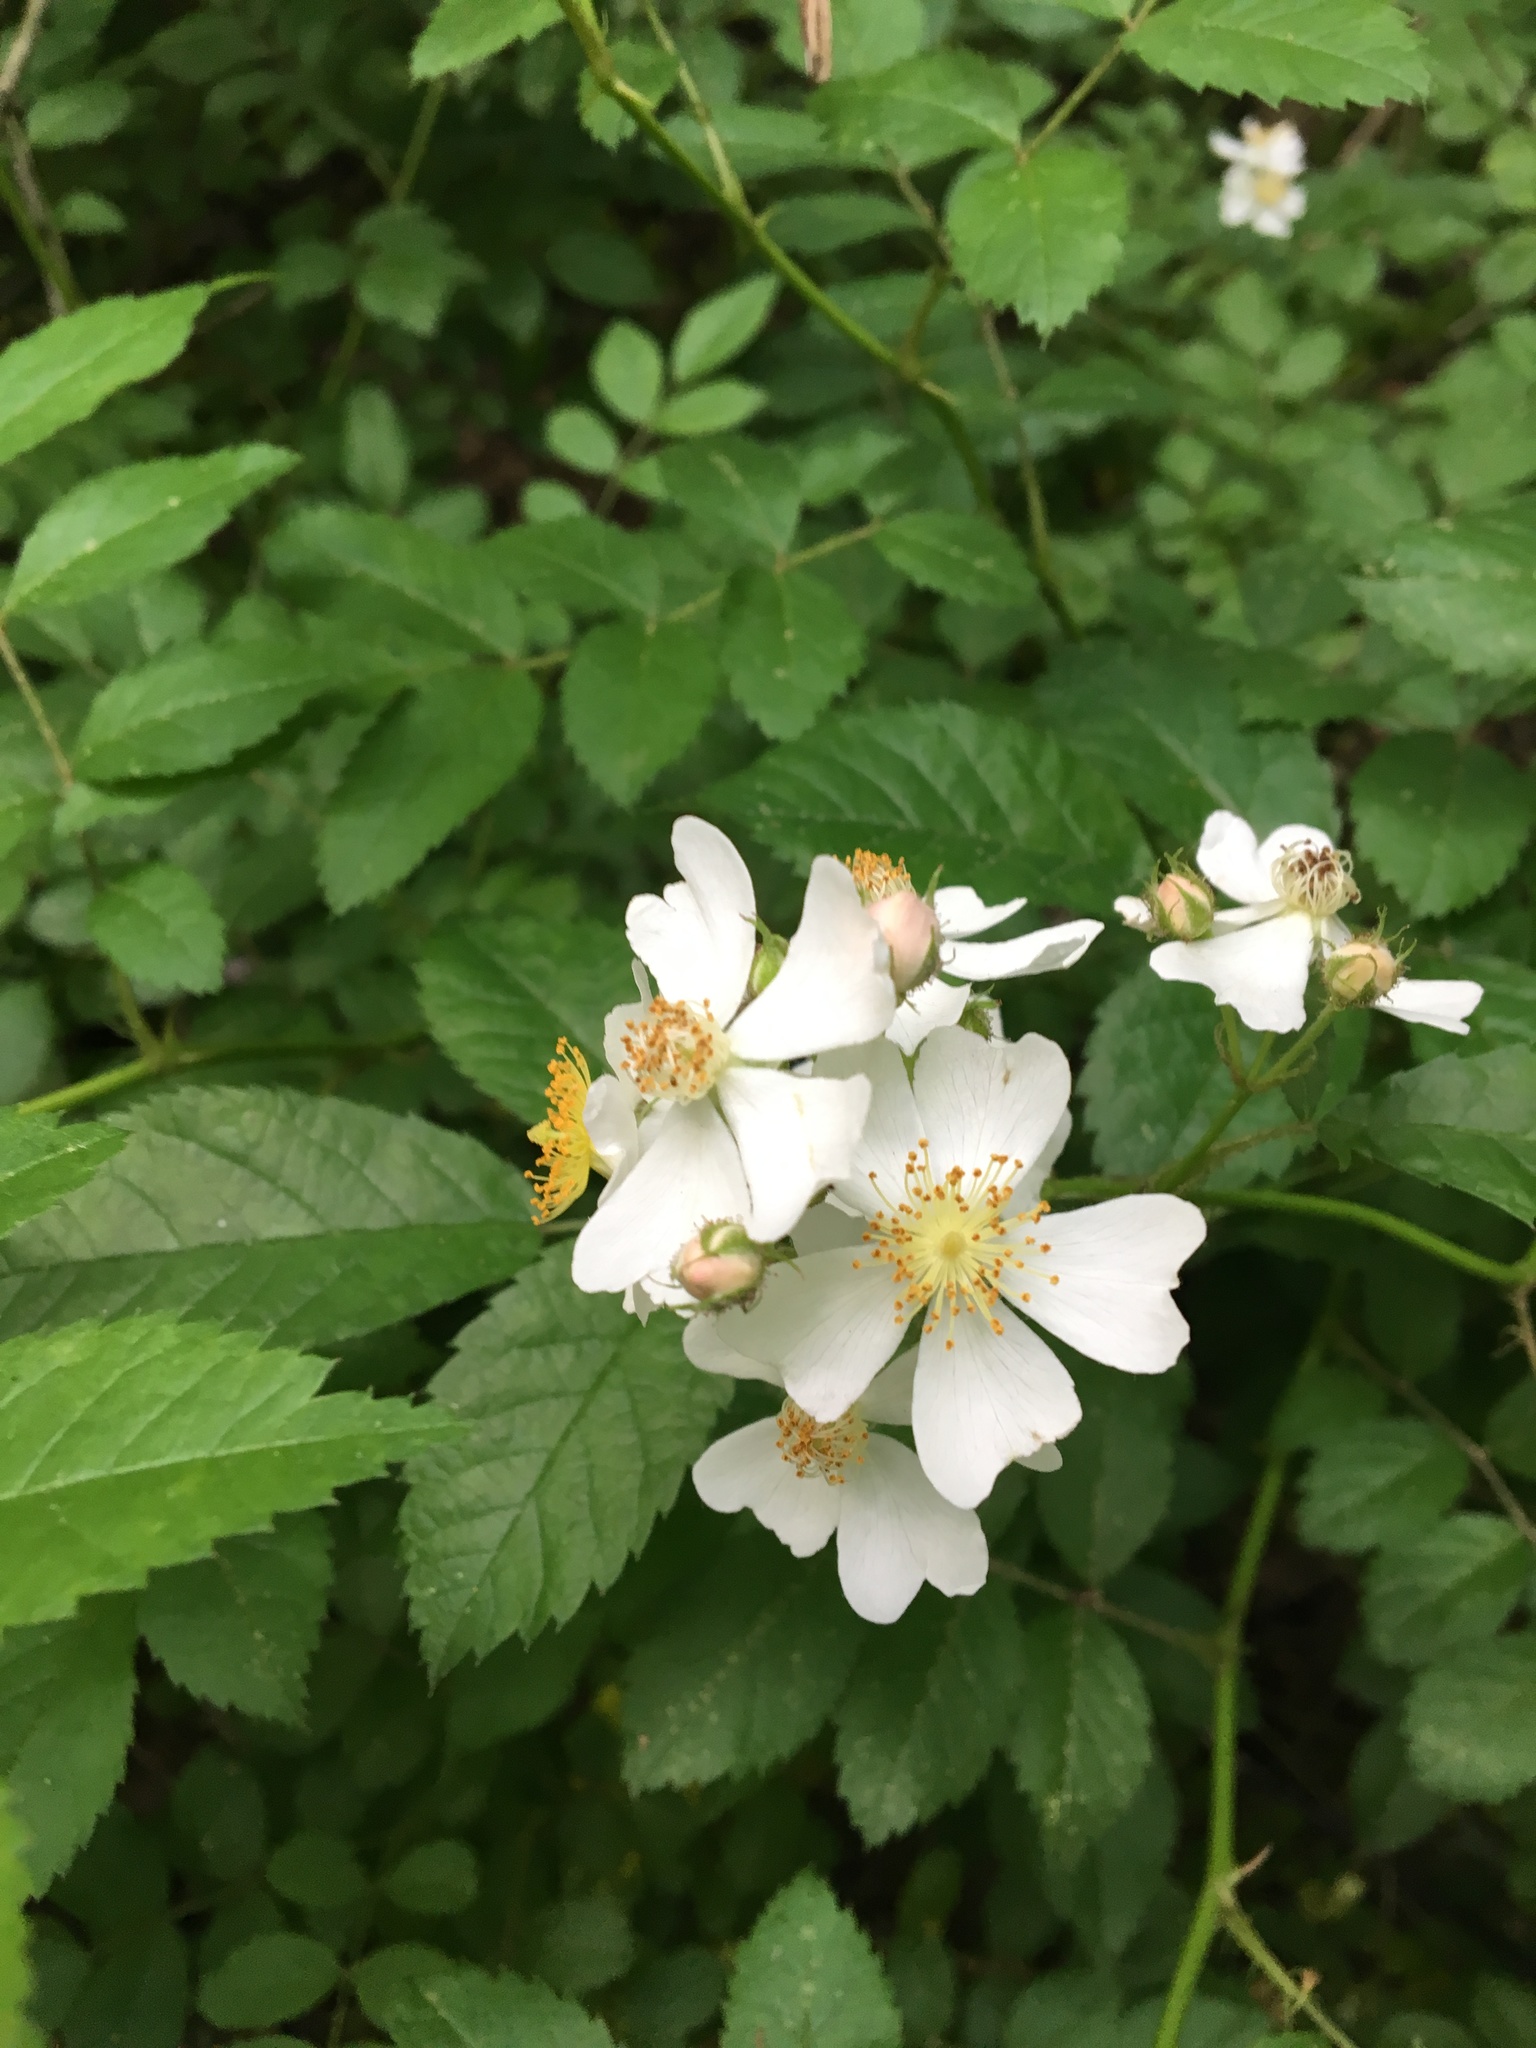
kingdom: Plantae
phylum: Tracheophyta
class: Magnoliopsida
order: Rosales
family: Rosaceae
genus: Rosa
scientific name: Rosa multiflora
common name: Multiflora rose
